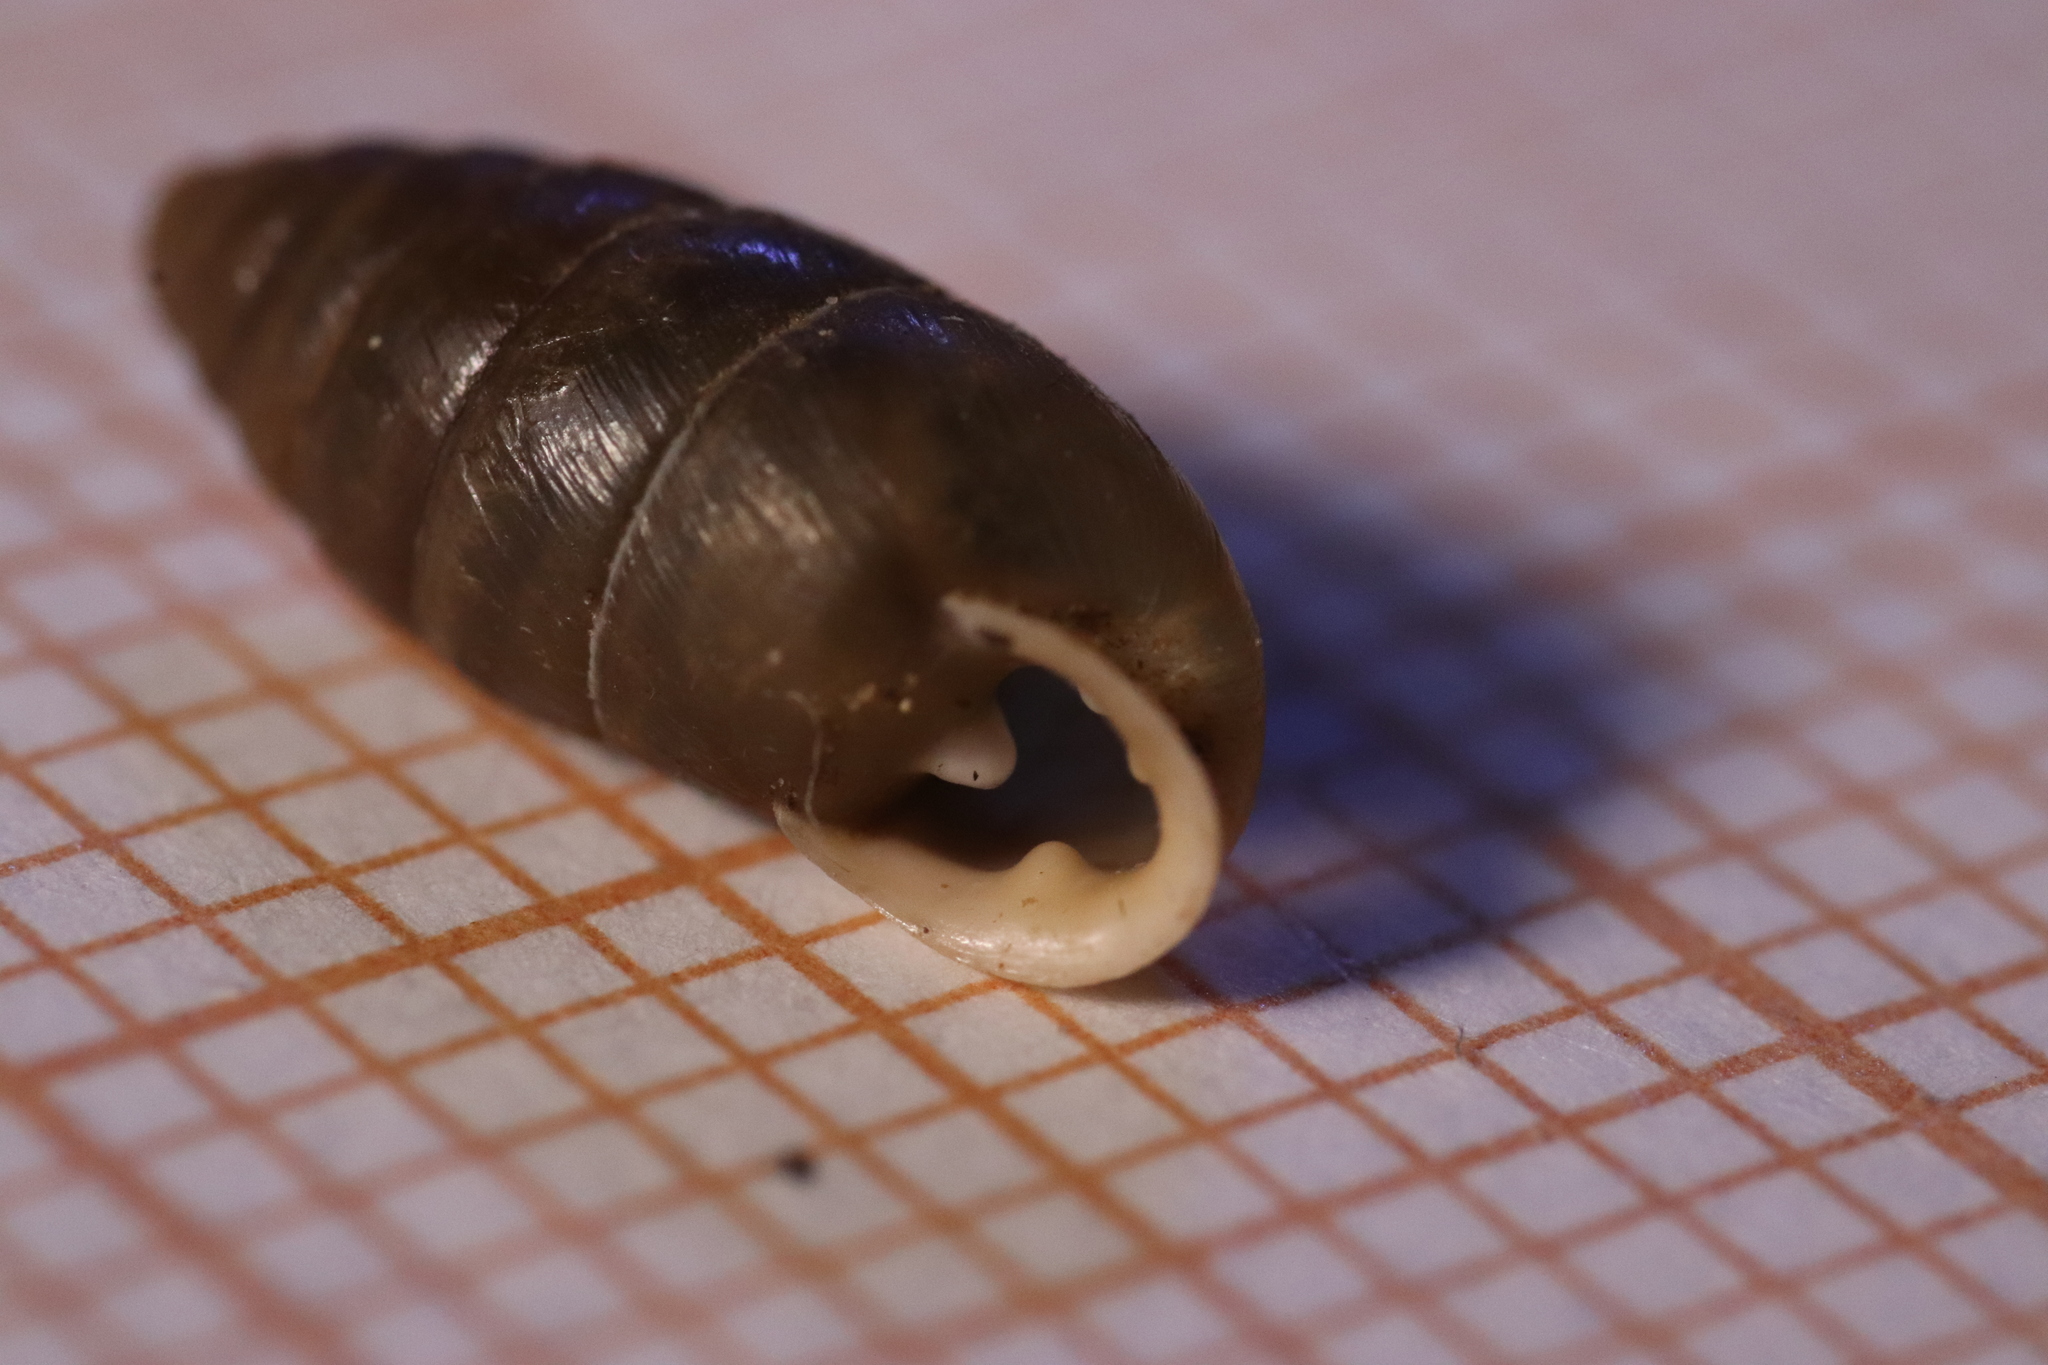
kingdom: Animalia
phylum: Mollusca
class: Gastropoda
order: Stylommatophora
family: Enidae
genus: Jaminia
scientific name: Jaminia quadridens
